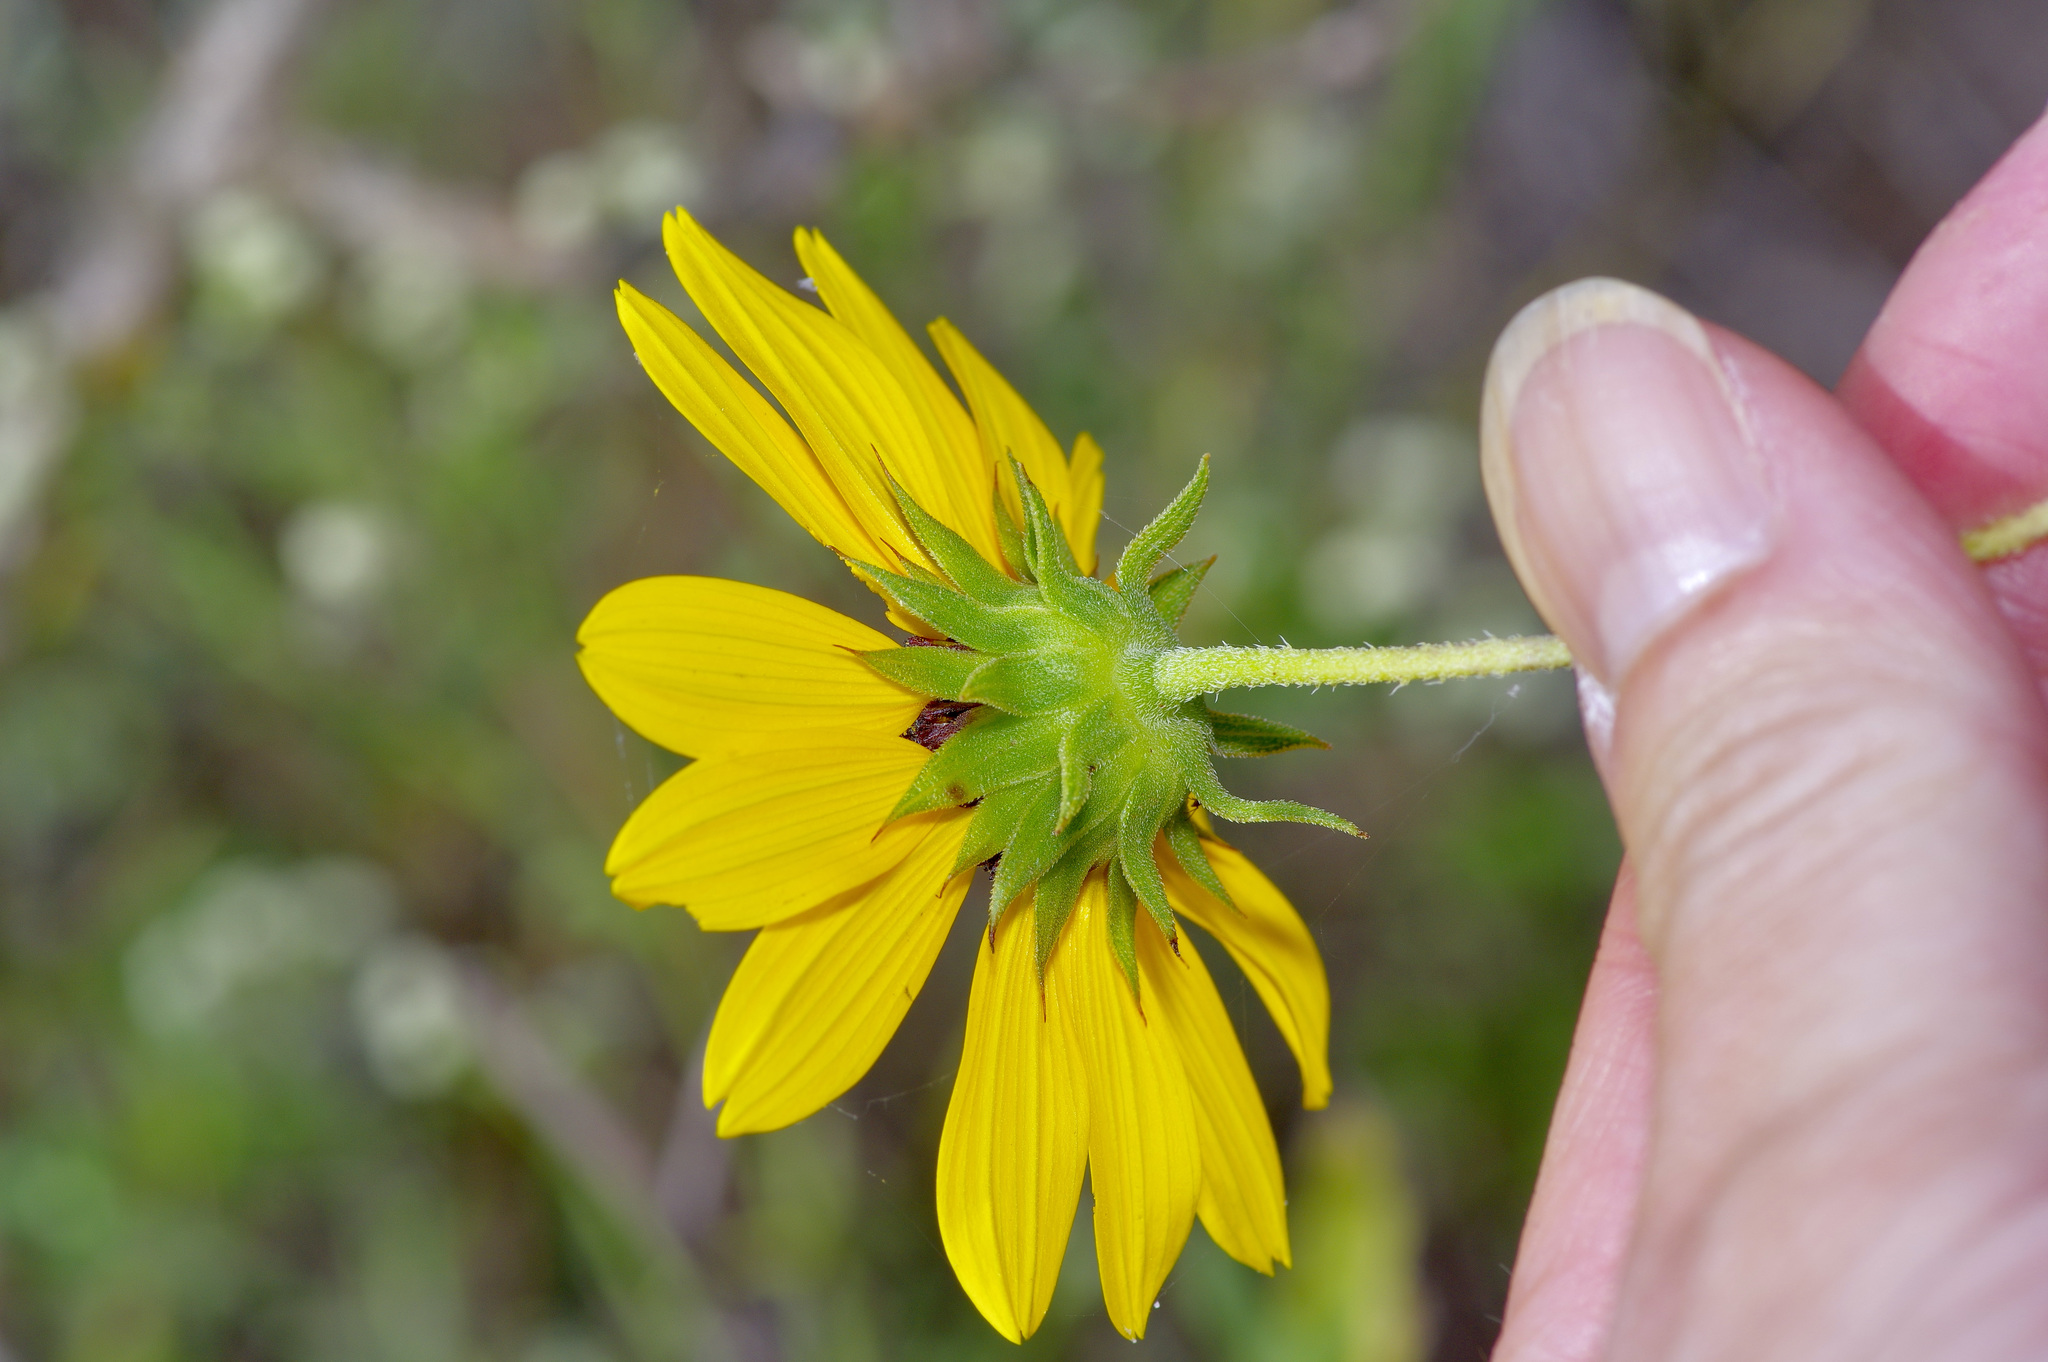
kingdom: Plantae
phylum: Tracheophyta
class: Magnoliopsida
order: Asterales
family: Asteraceae
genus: Helianthus
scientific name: Helianthus praecox
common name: Texas sunflower
